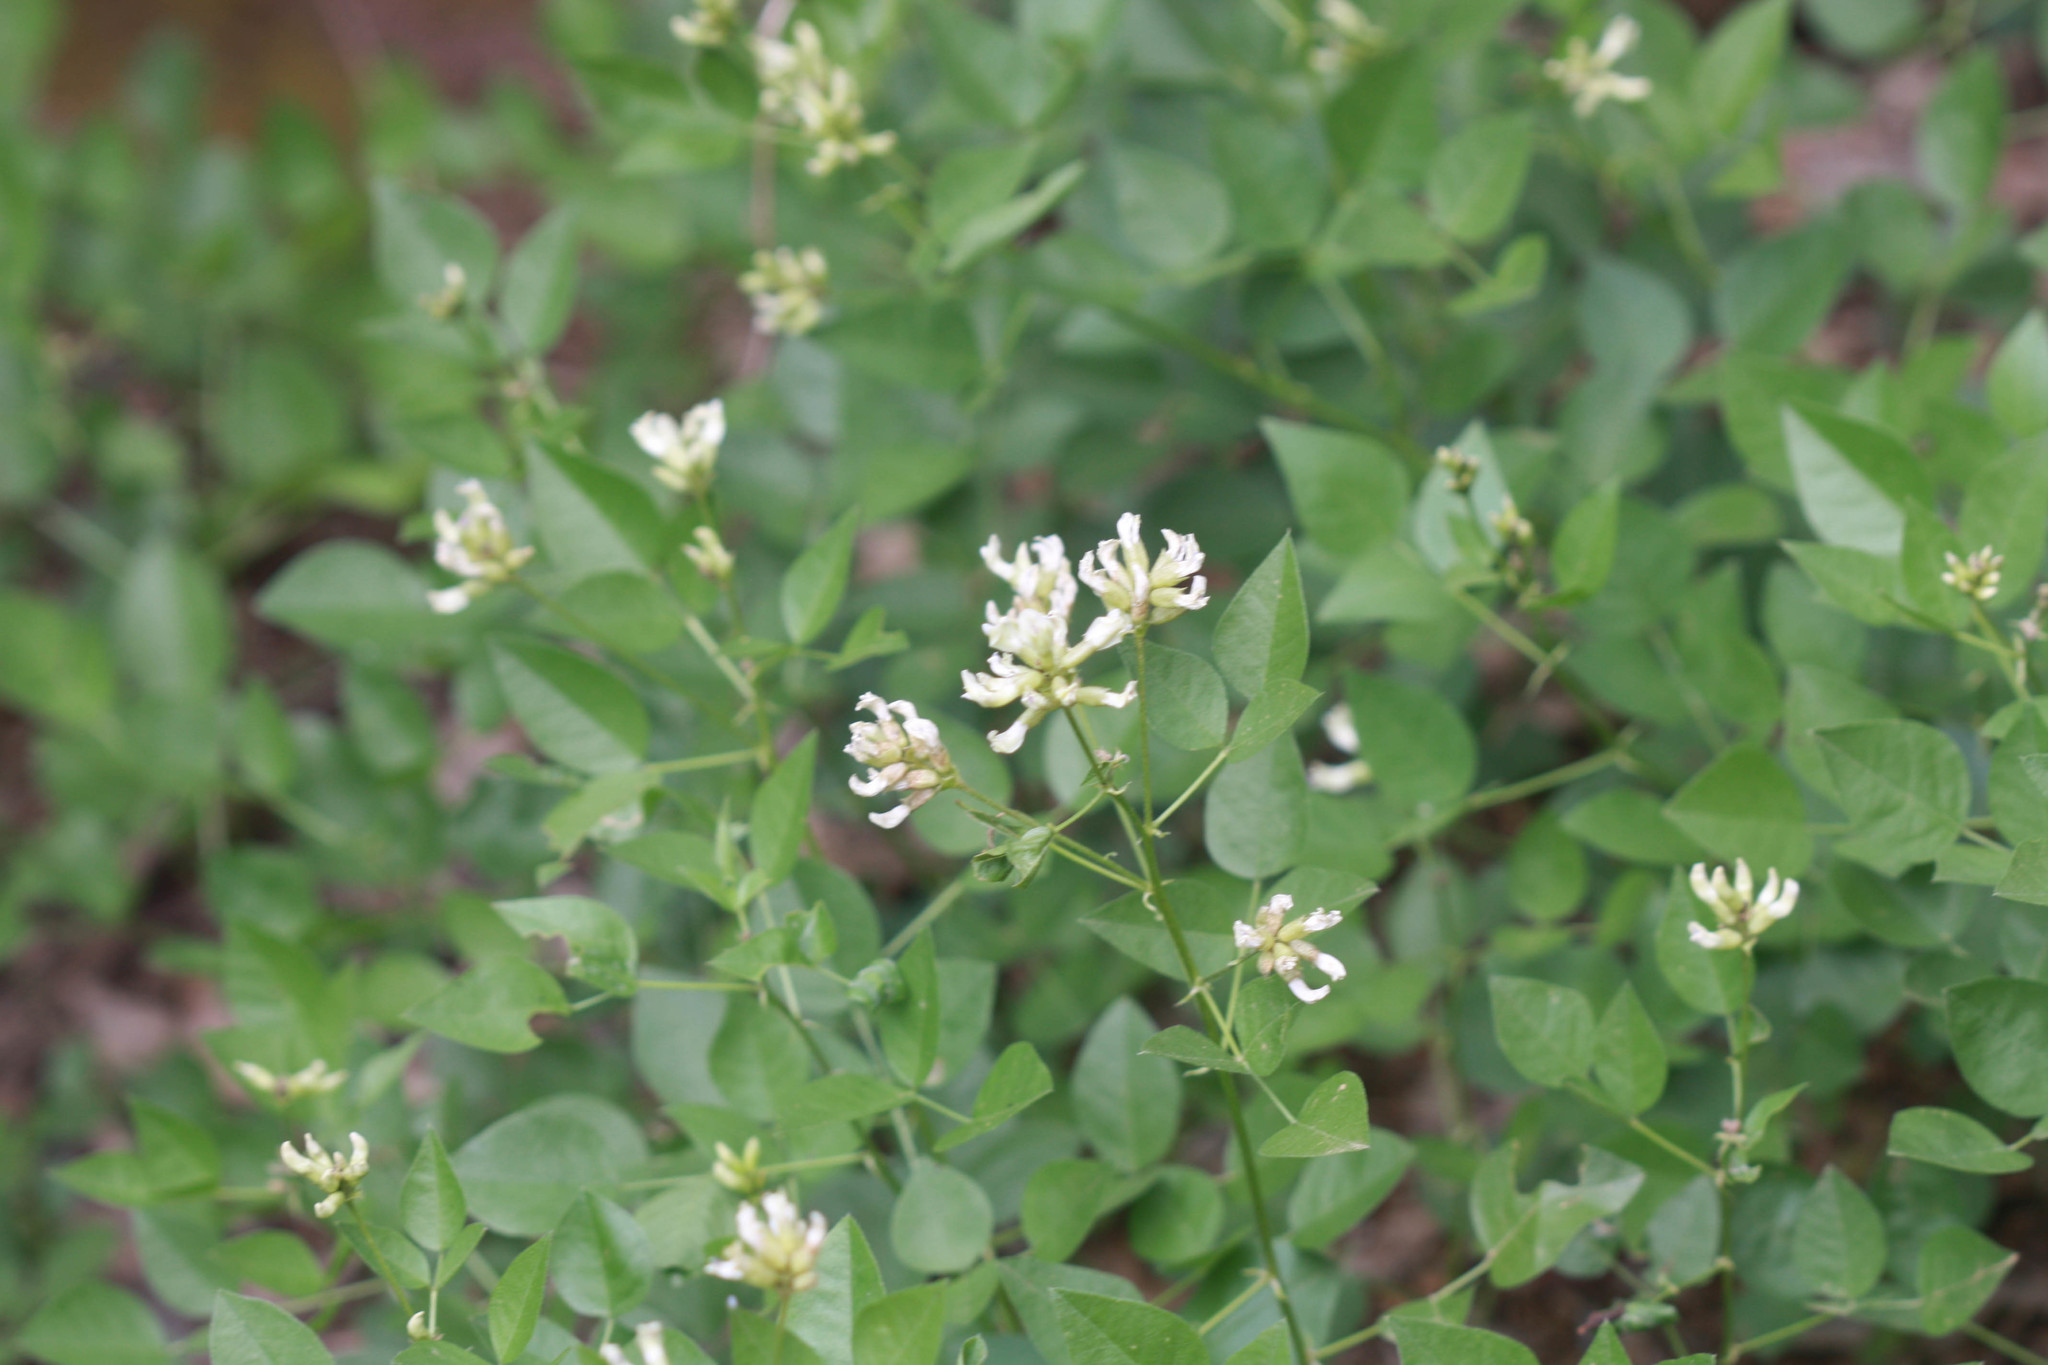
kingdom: Plantae
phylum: Tracheophyta
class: Magnoliopsida
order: Fabales
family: Fabaceae
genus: Rupertia
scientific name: Rupertia physodes
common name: California-tea
